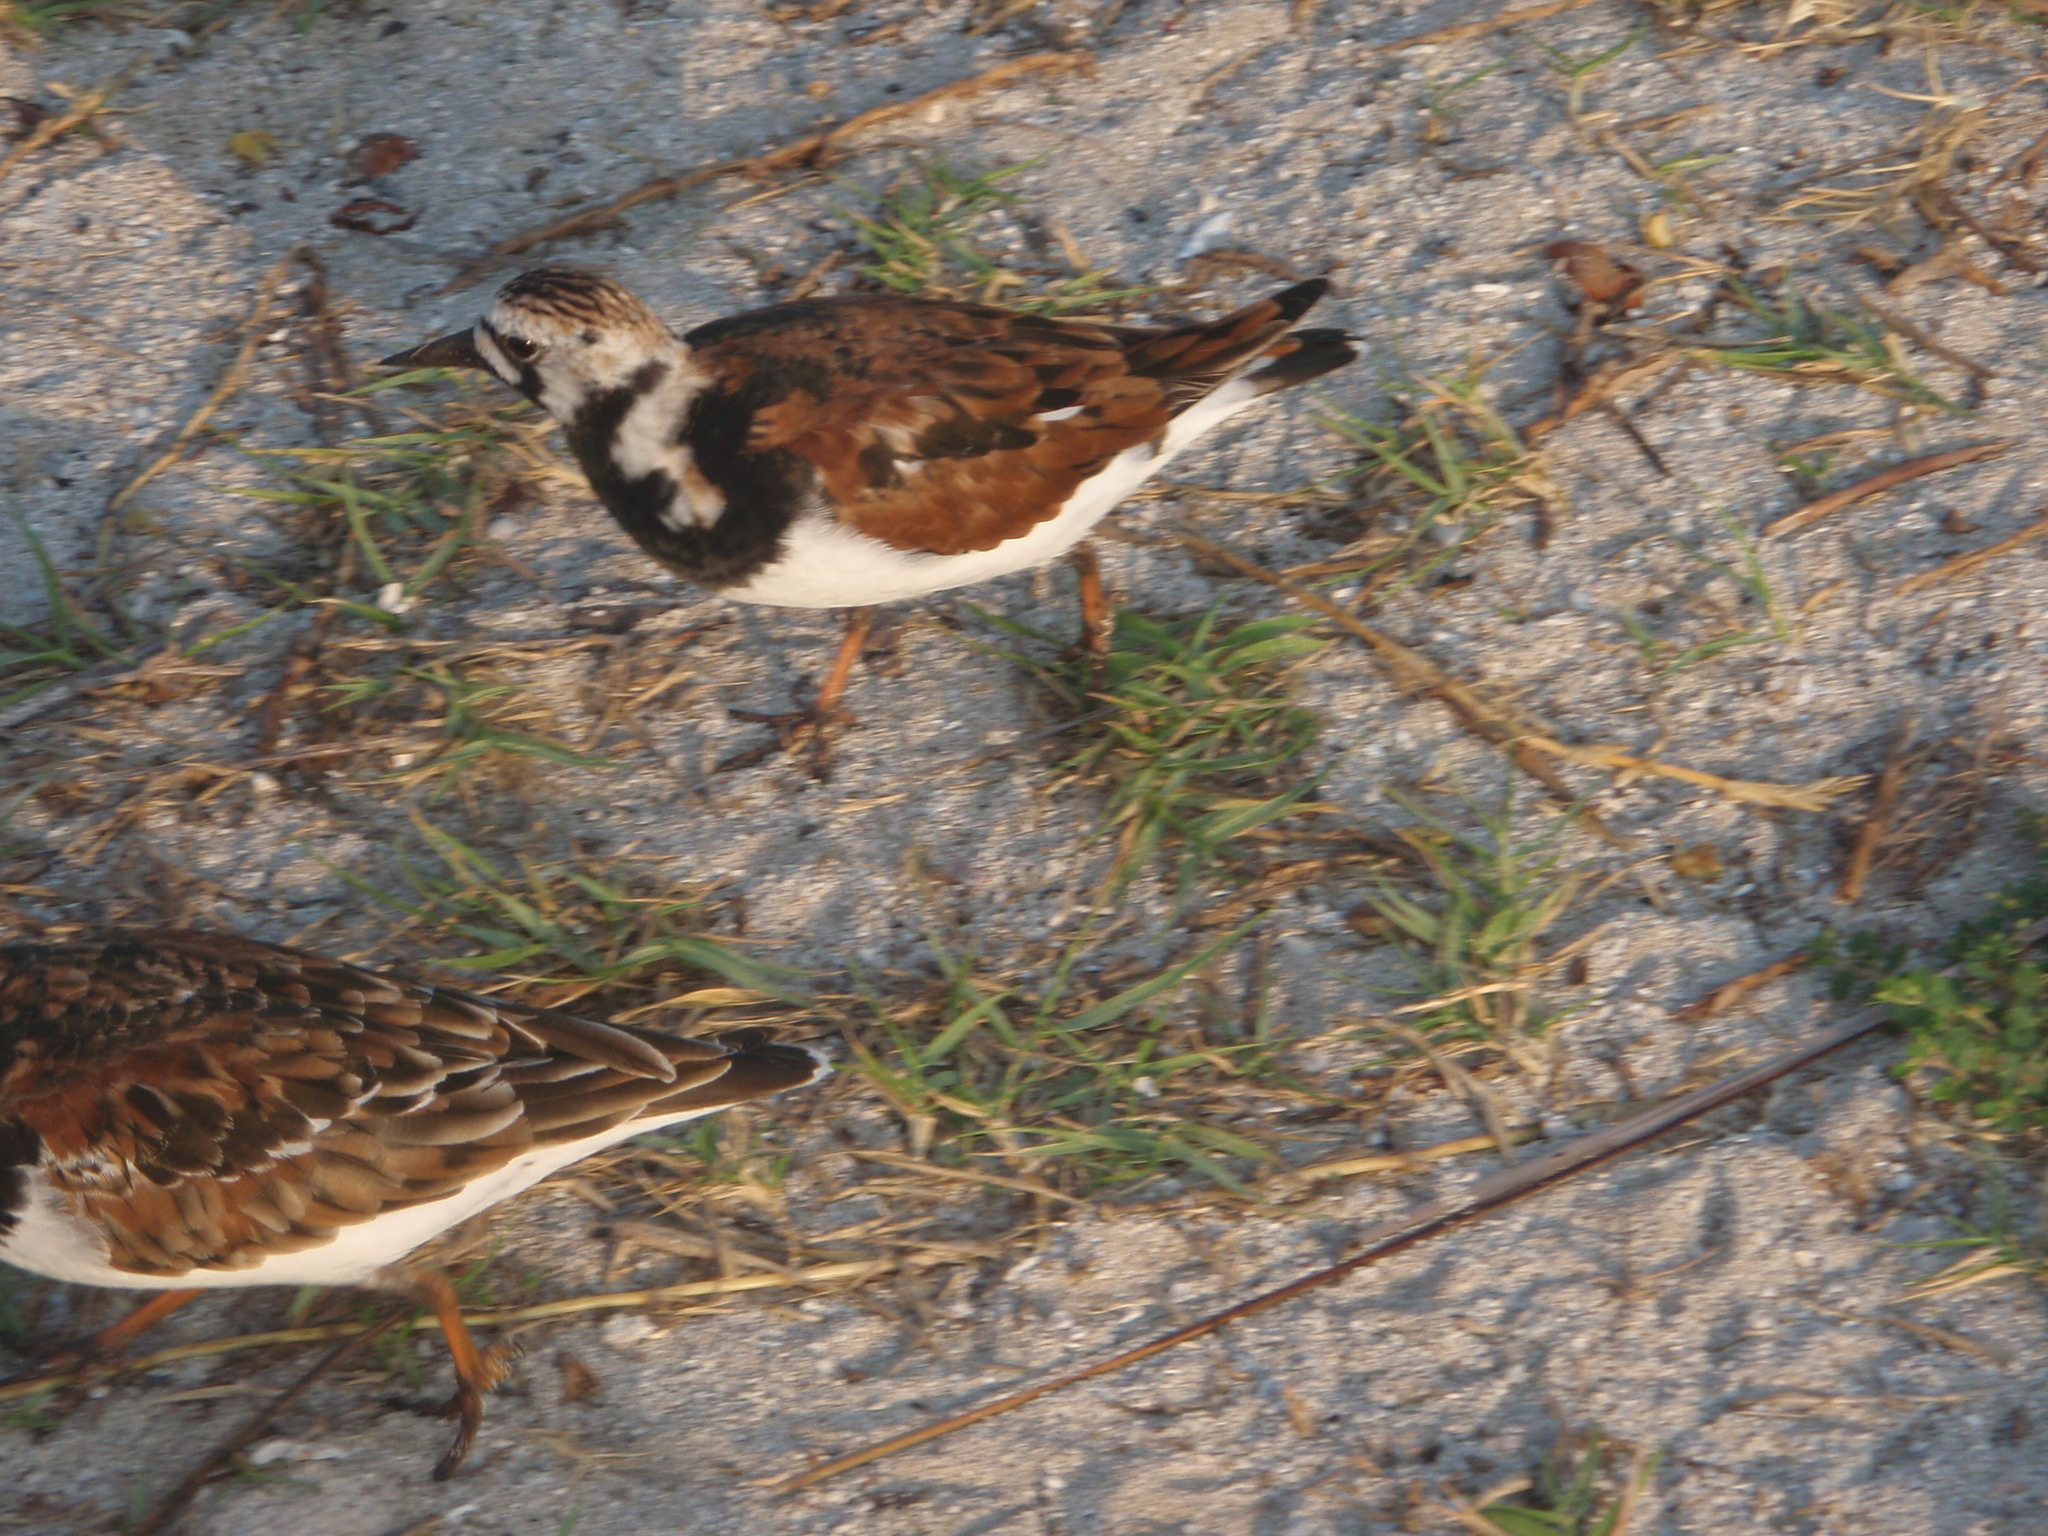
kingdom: Animalia
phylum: Chordata
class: Aves
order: Charadriiformes
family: Scolopacidae
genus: Arenaria
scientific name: Arenaria interpres
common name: Ruddy turnstone
